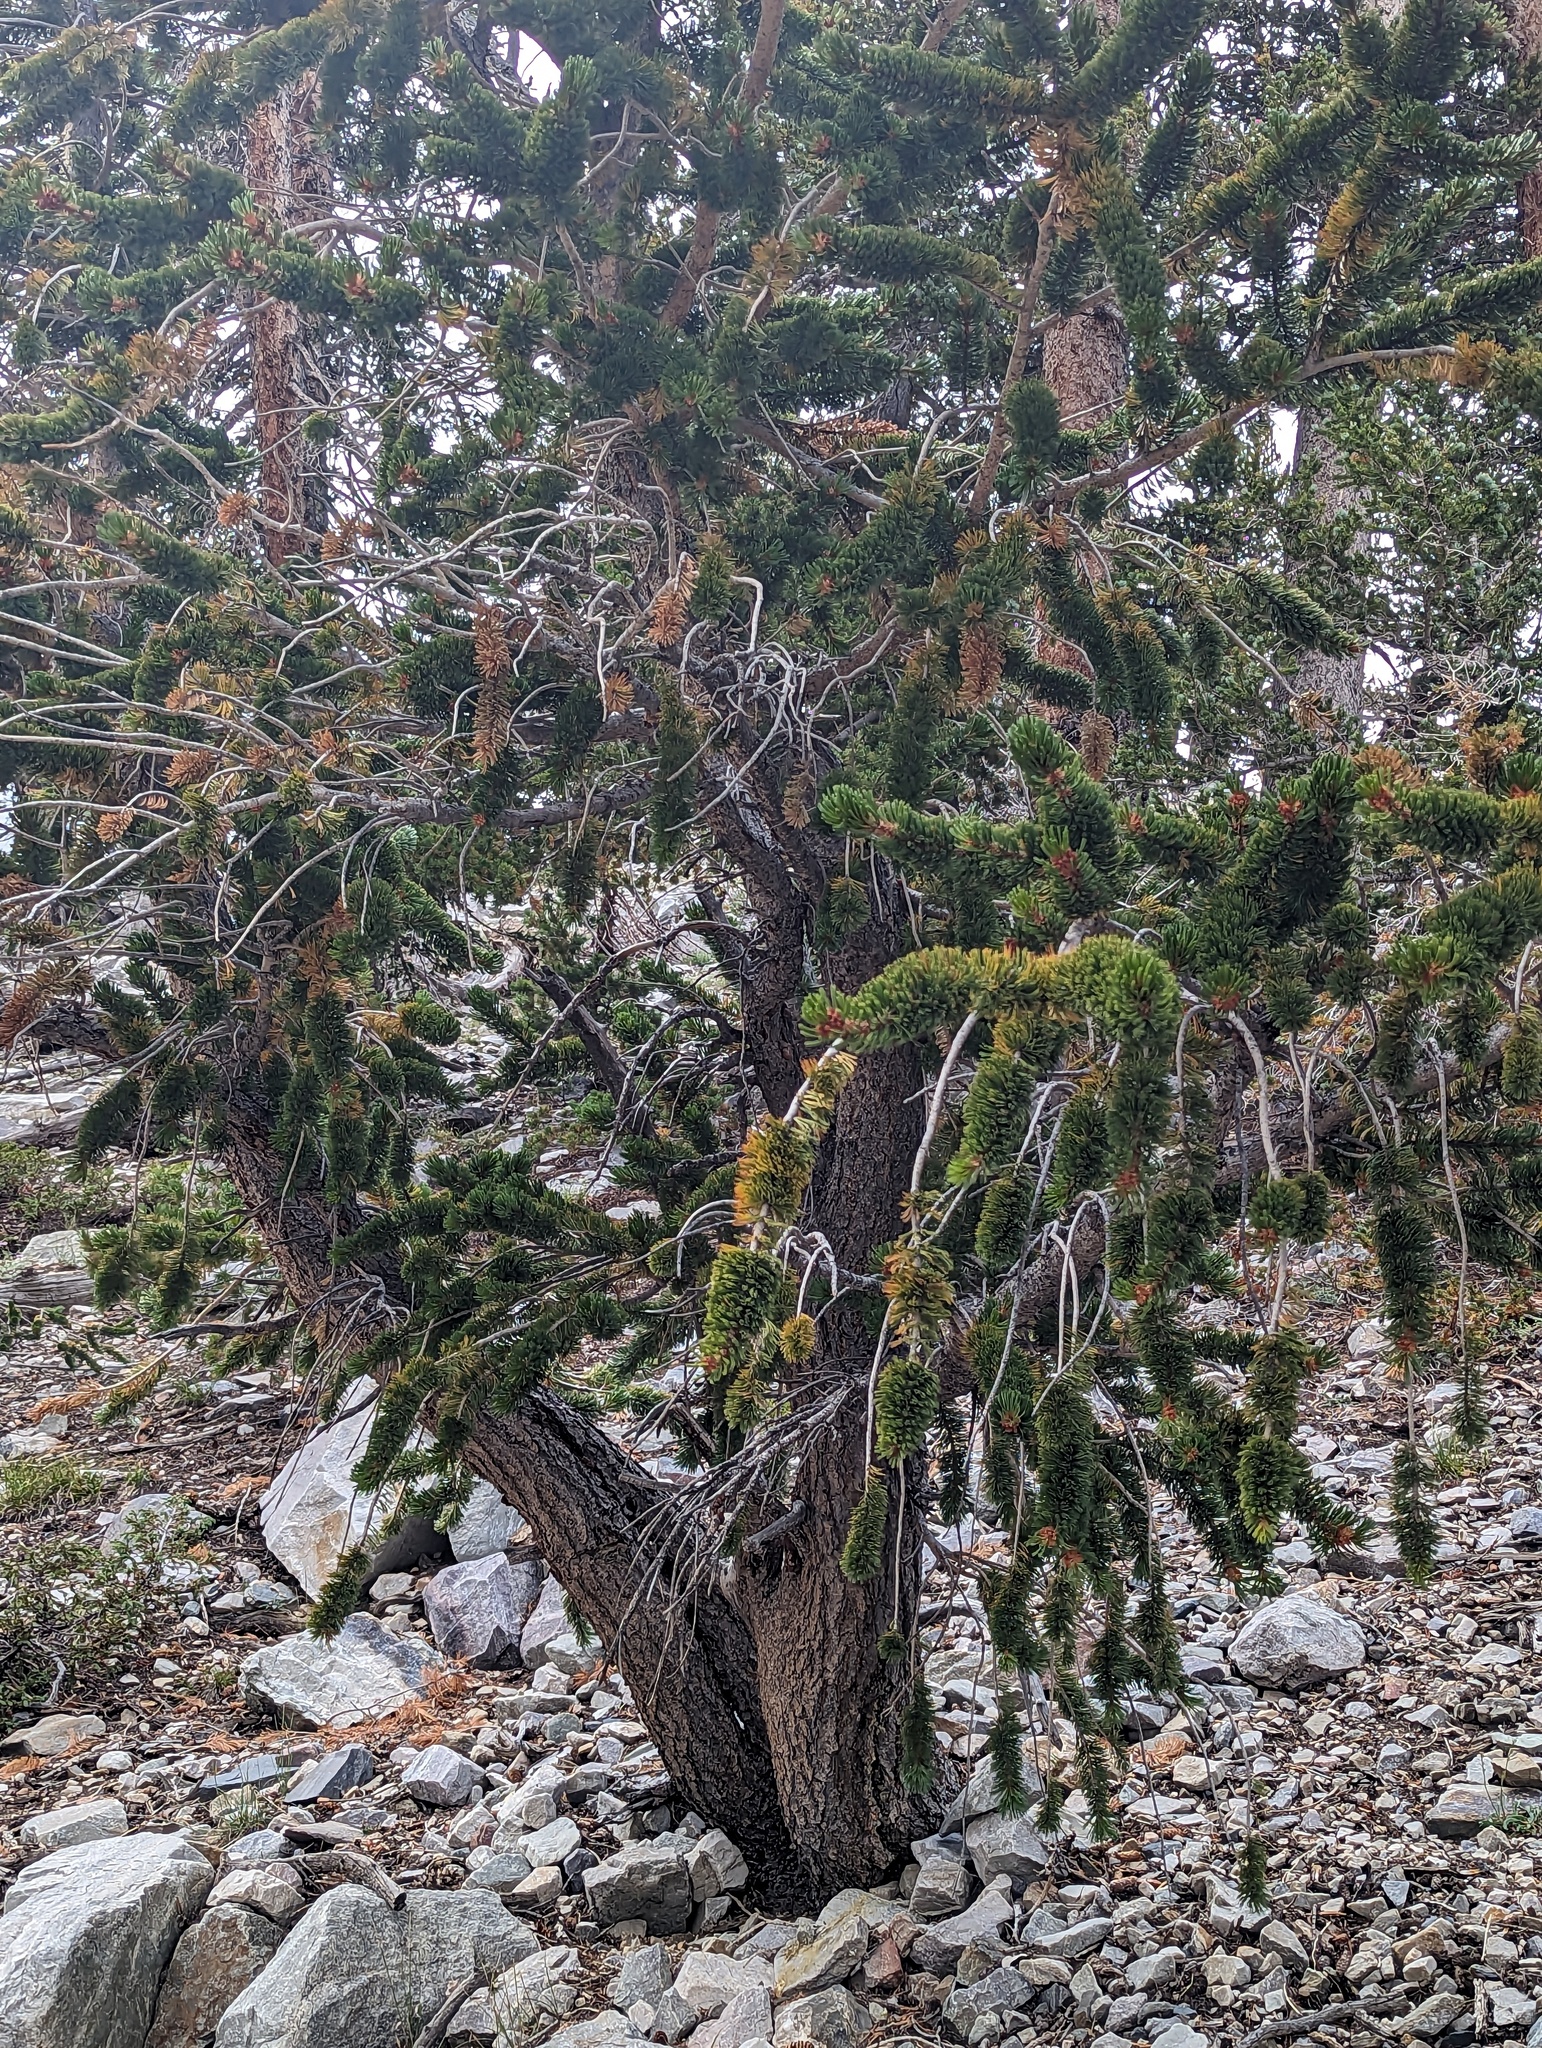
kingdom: Plantae
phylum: Tracheophyta
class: Pinopsida
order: Pinales
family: Pinaceae
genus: Pinus
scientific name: Pinus longaeva
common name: Intermountain bristlecone pine
